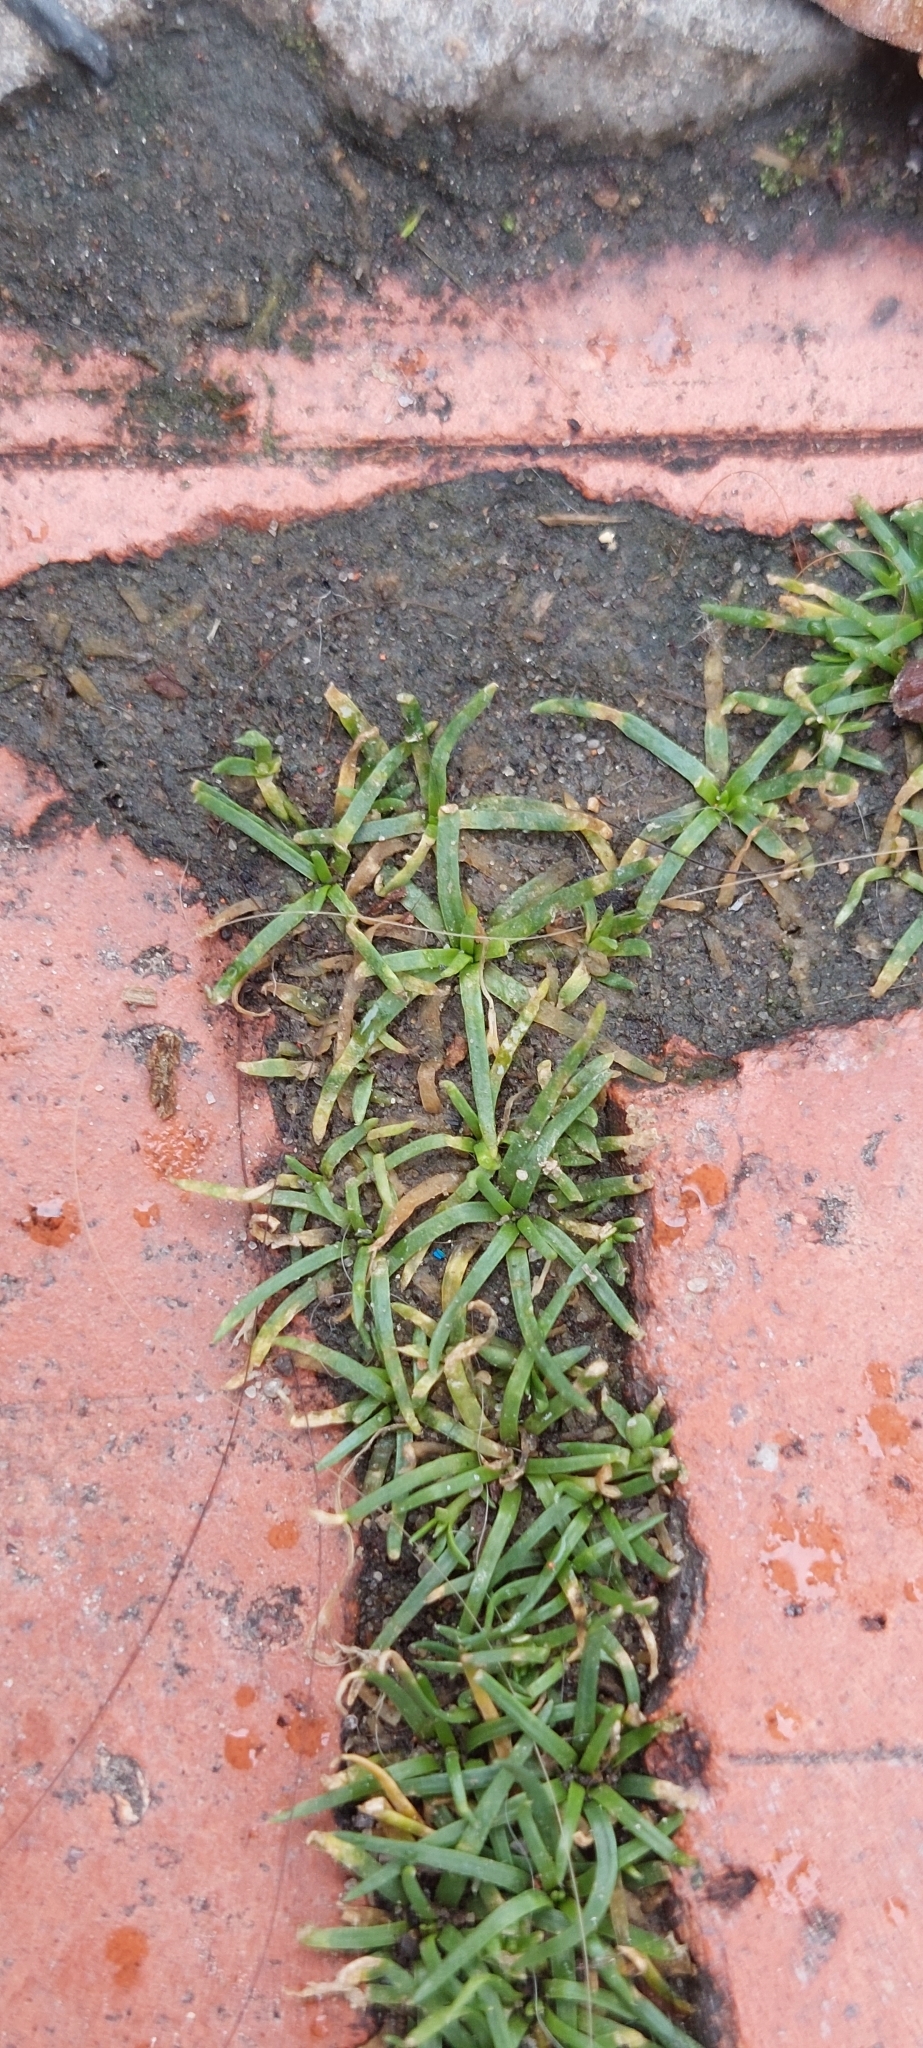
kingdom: Plantae
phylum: Tracheophyta
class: Magnoliopsida
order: Caryophyllales
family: Caryophyllaceae
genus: Sagina
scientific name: Sagina procumbens
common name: Procumbent pearlwort
